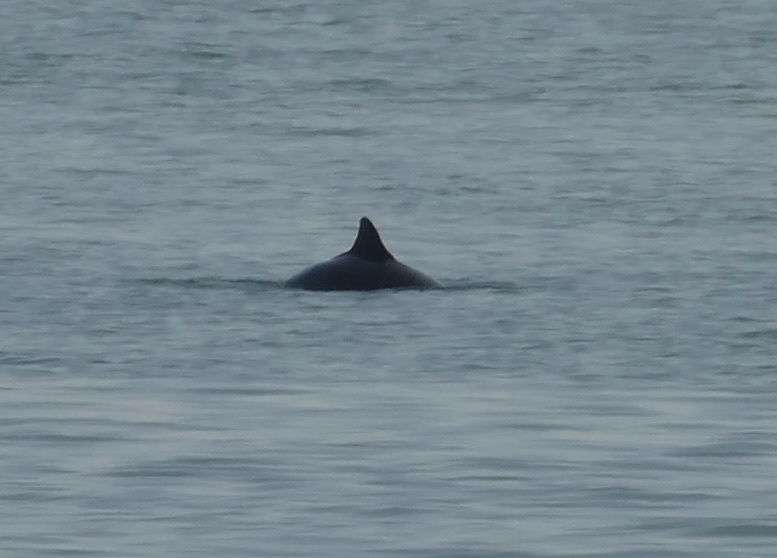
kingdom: Animalia
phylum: Chordata
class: Mammalia
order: Cetacea
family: Phocoenidae
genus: Phocoena
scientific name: Phocoena phocoena
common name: Harbor porpoise
